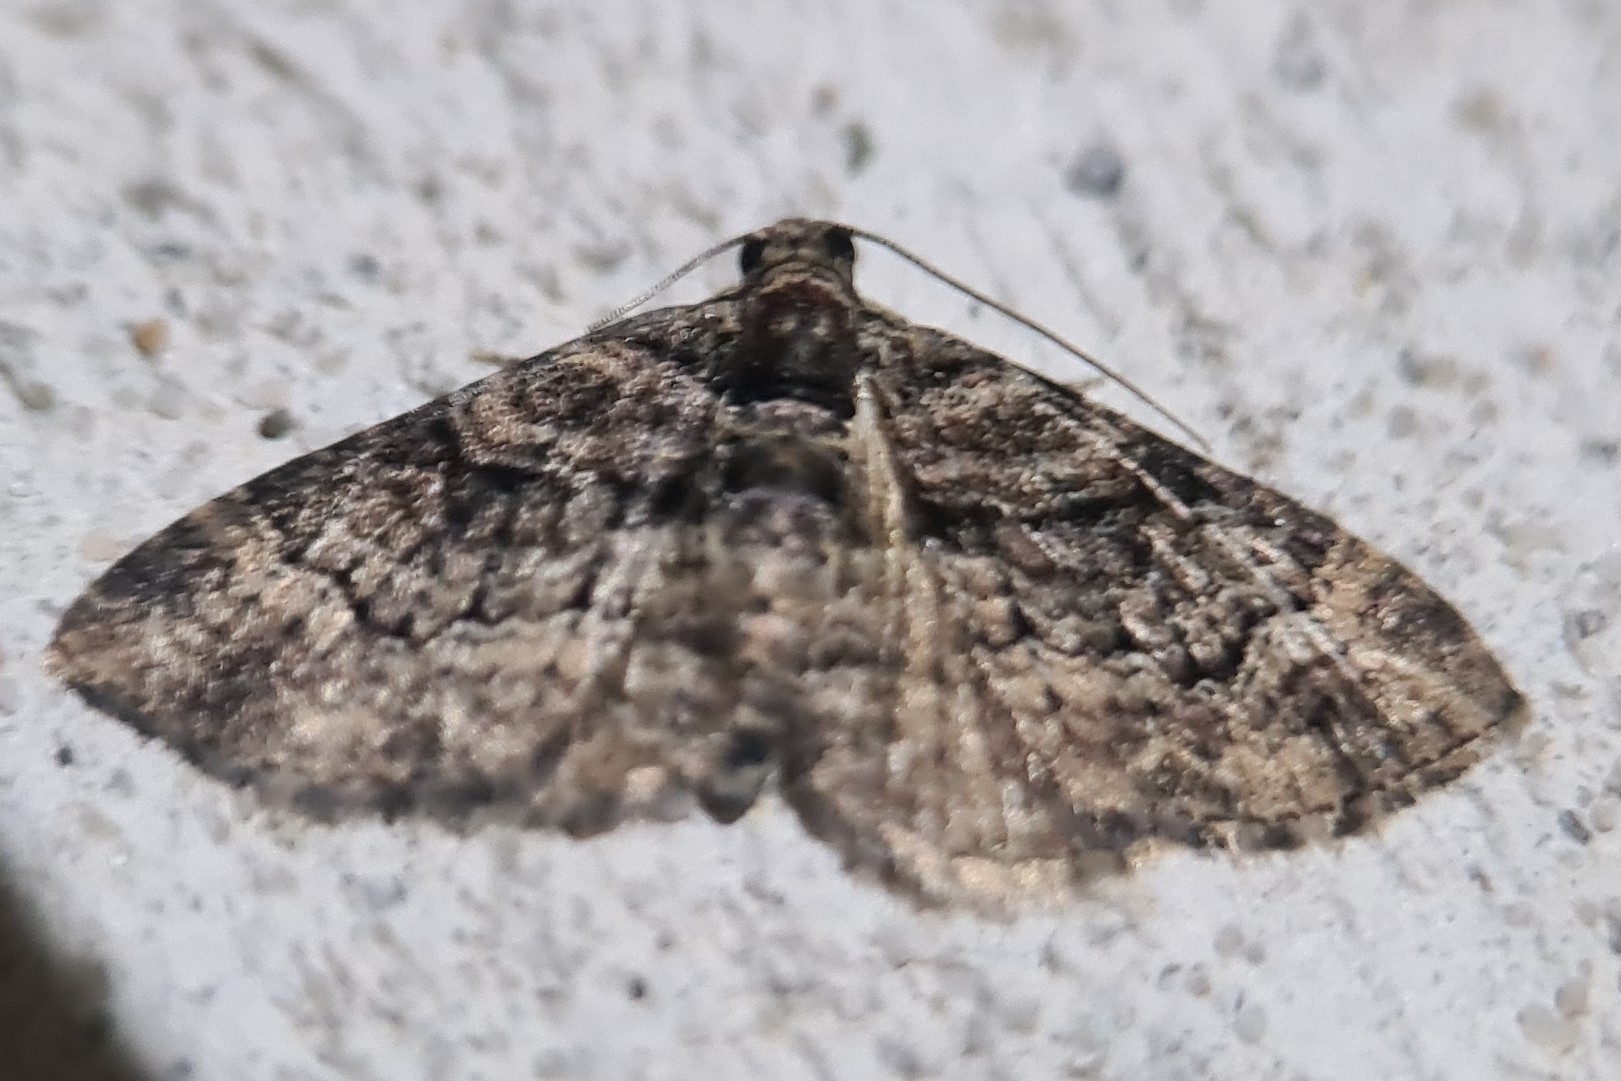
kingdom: Animalia
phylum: Arthropoda
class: Insecta
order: Lepidoptera
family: Geometridae
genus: Epyaxa
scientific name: Epyaxa sodaliata
